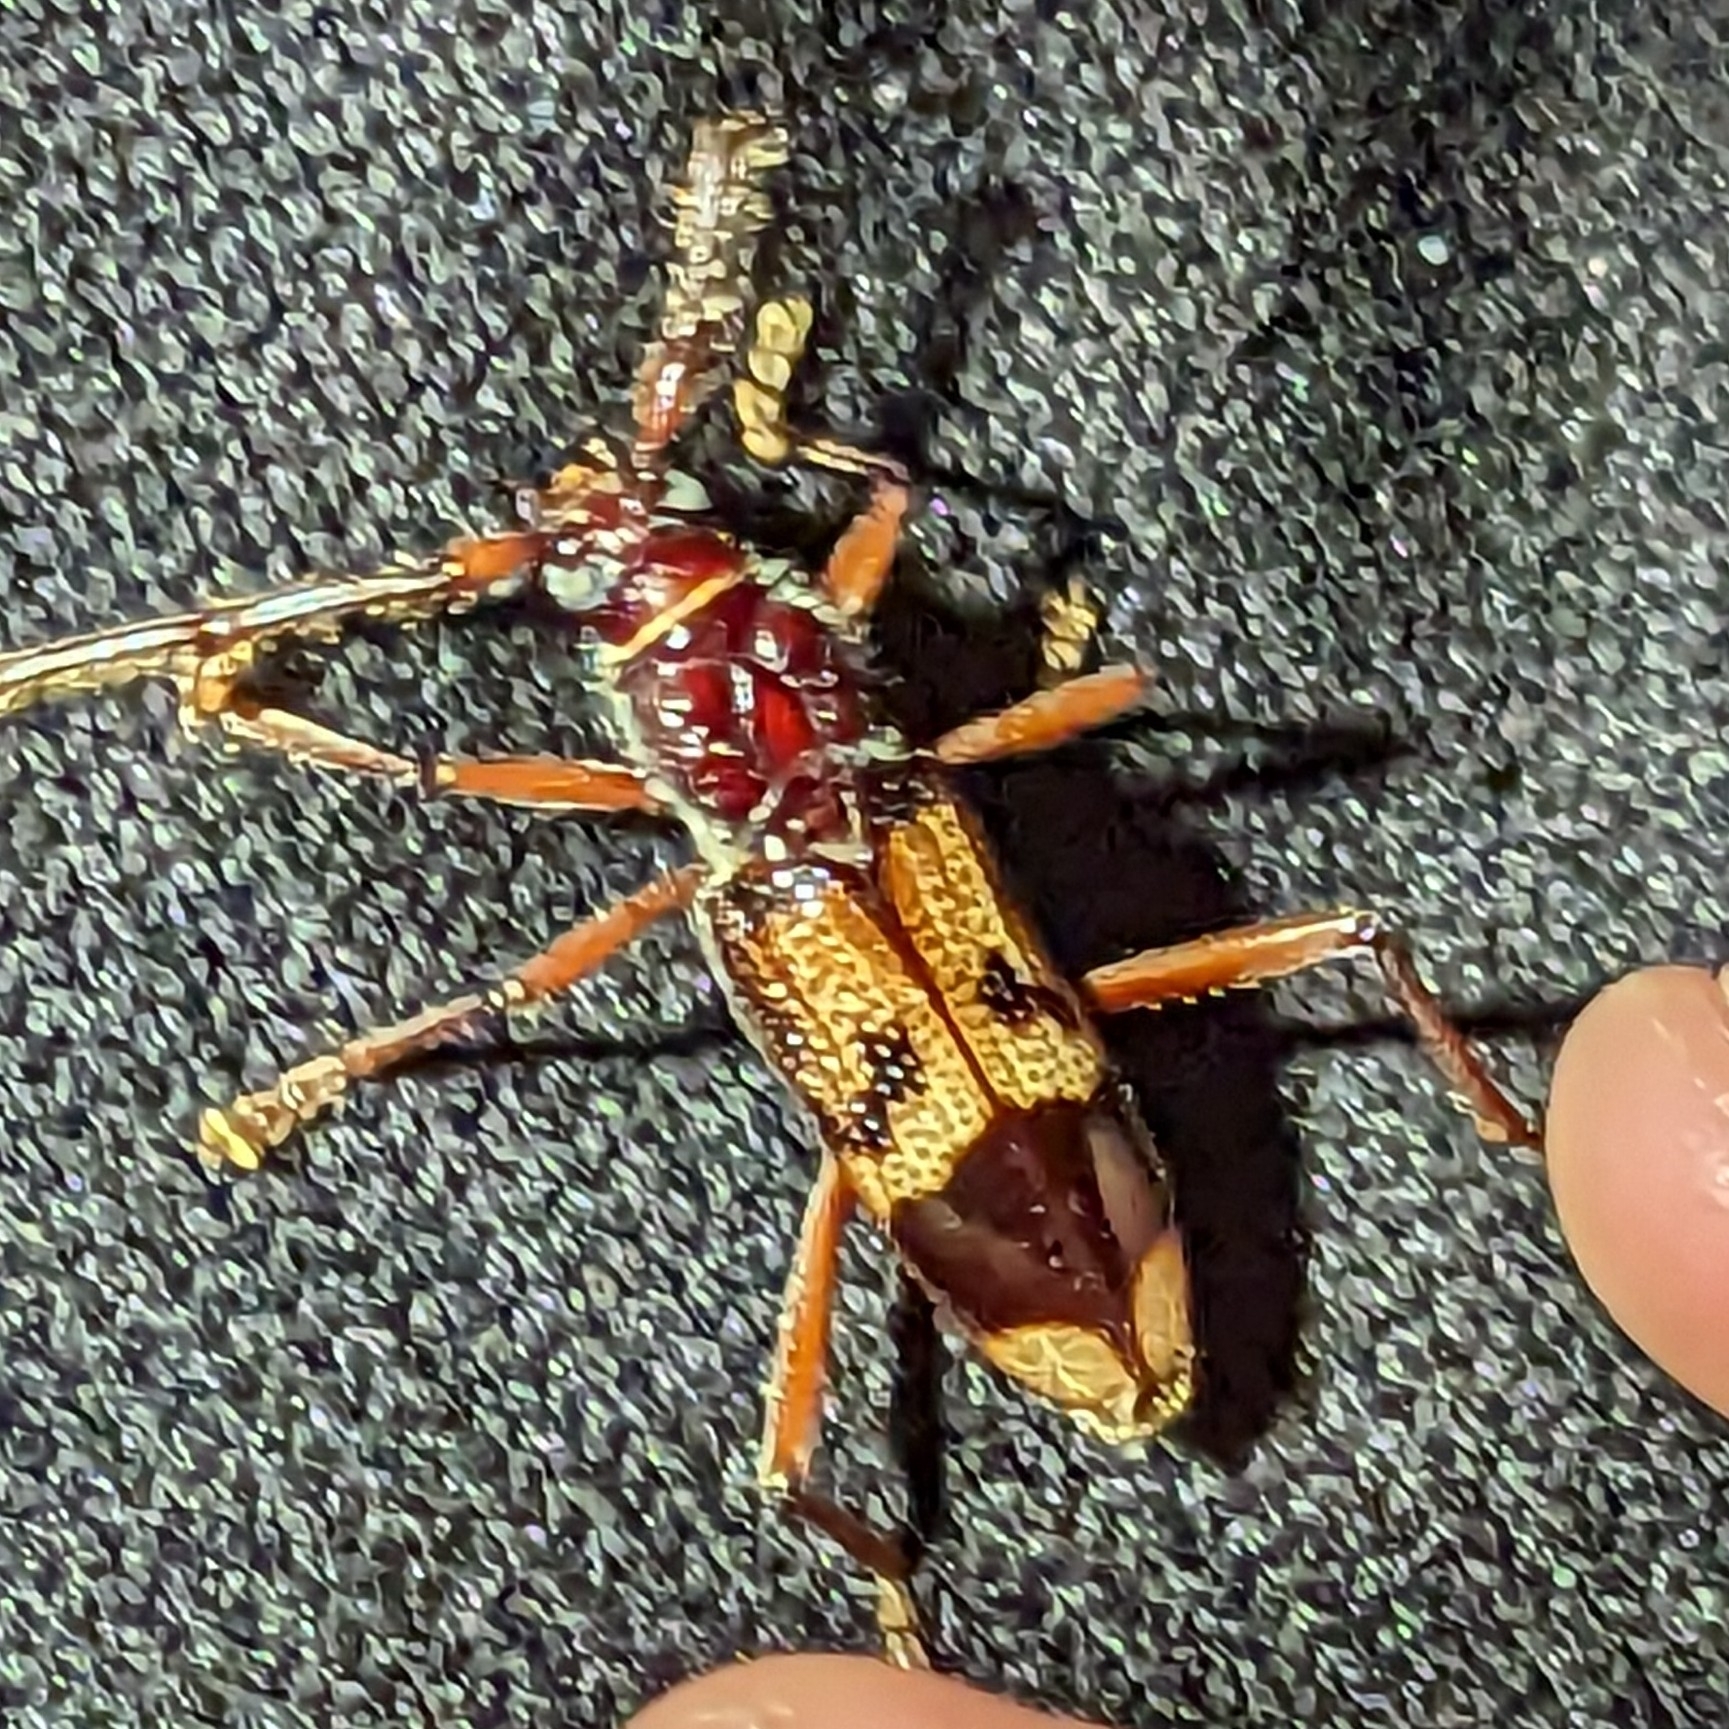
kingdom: Animalia
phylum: Arthropoda
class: Insecta
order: Coleoptera
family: Cerambycidae
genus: Phoracantha
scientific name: Phoracantha recurva
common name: Eucalyptus longhorned borer
